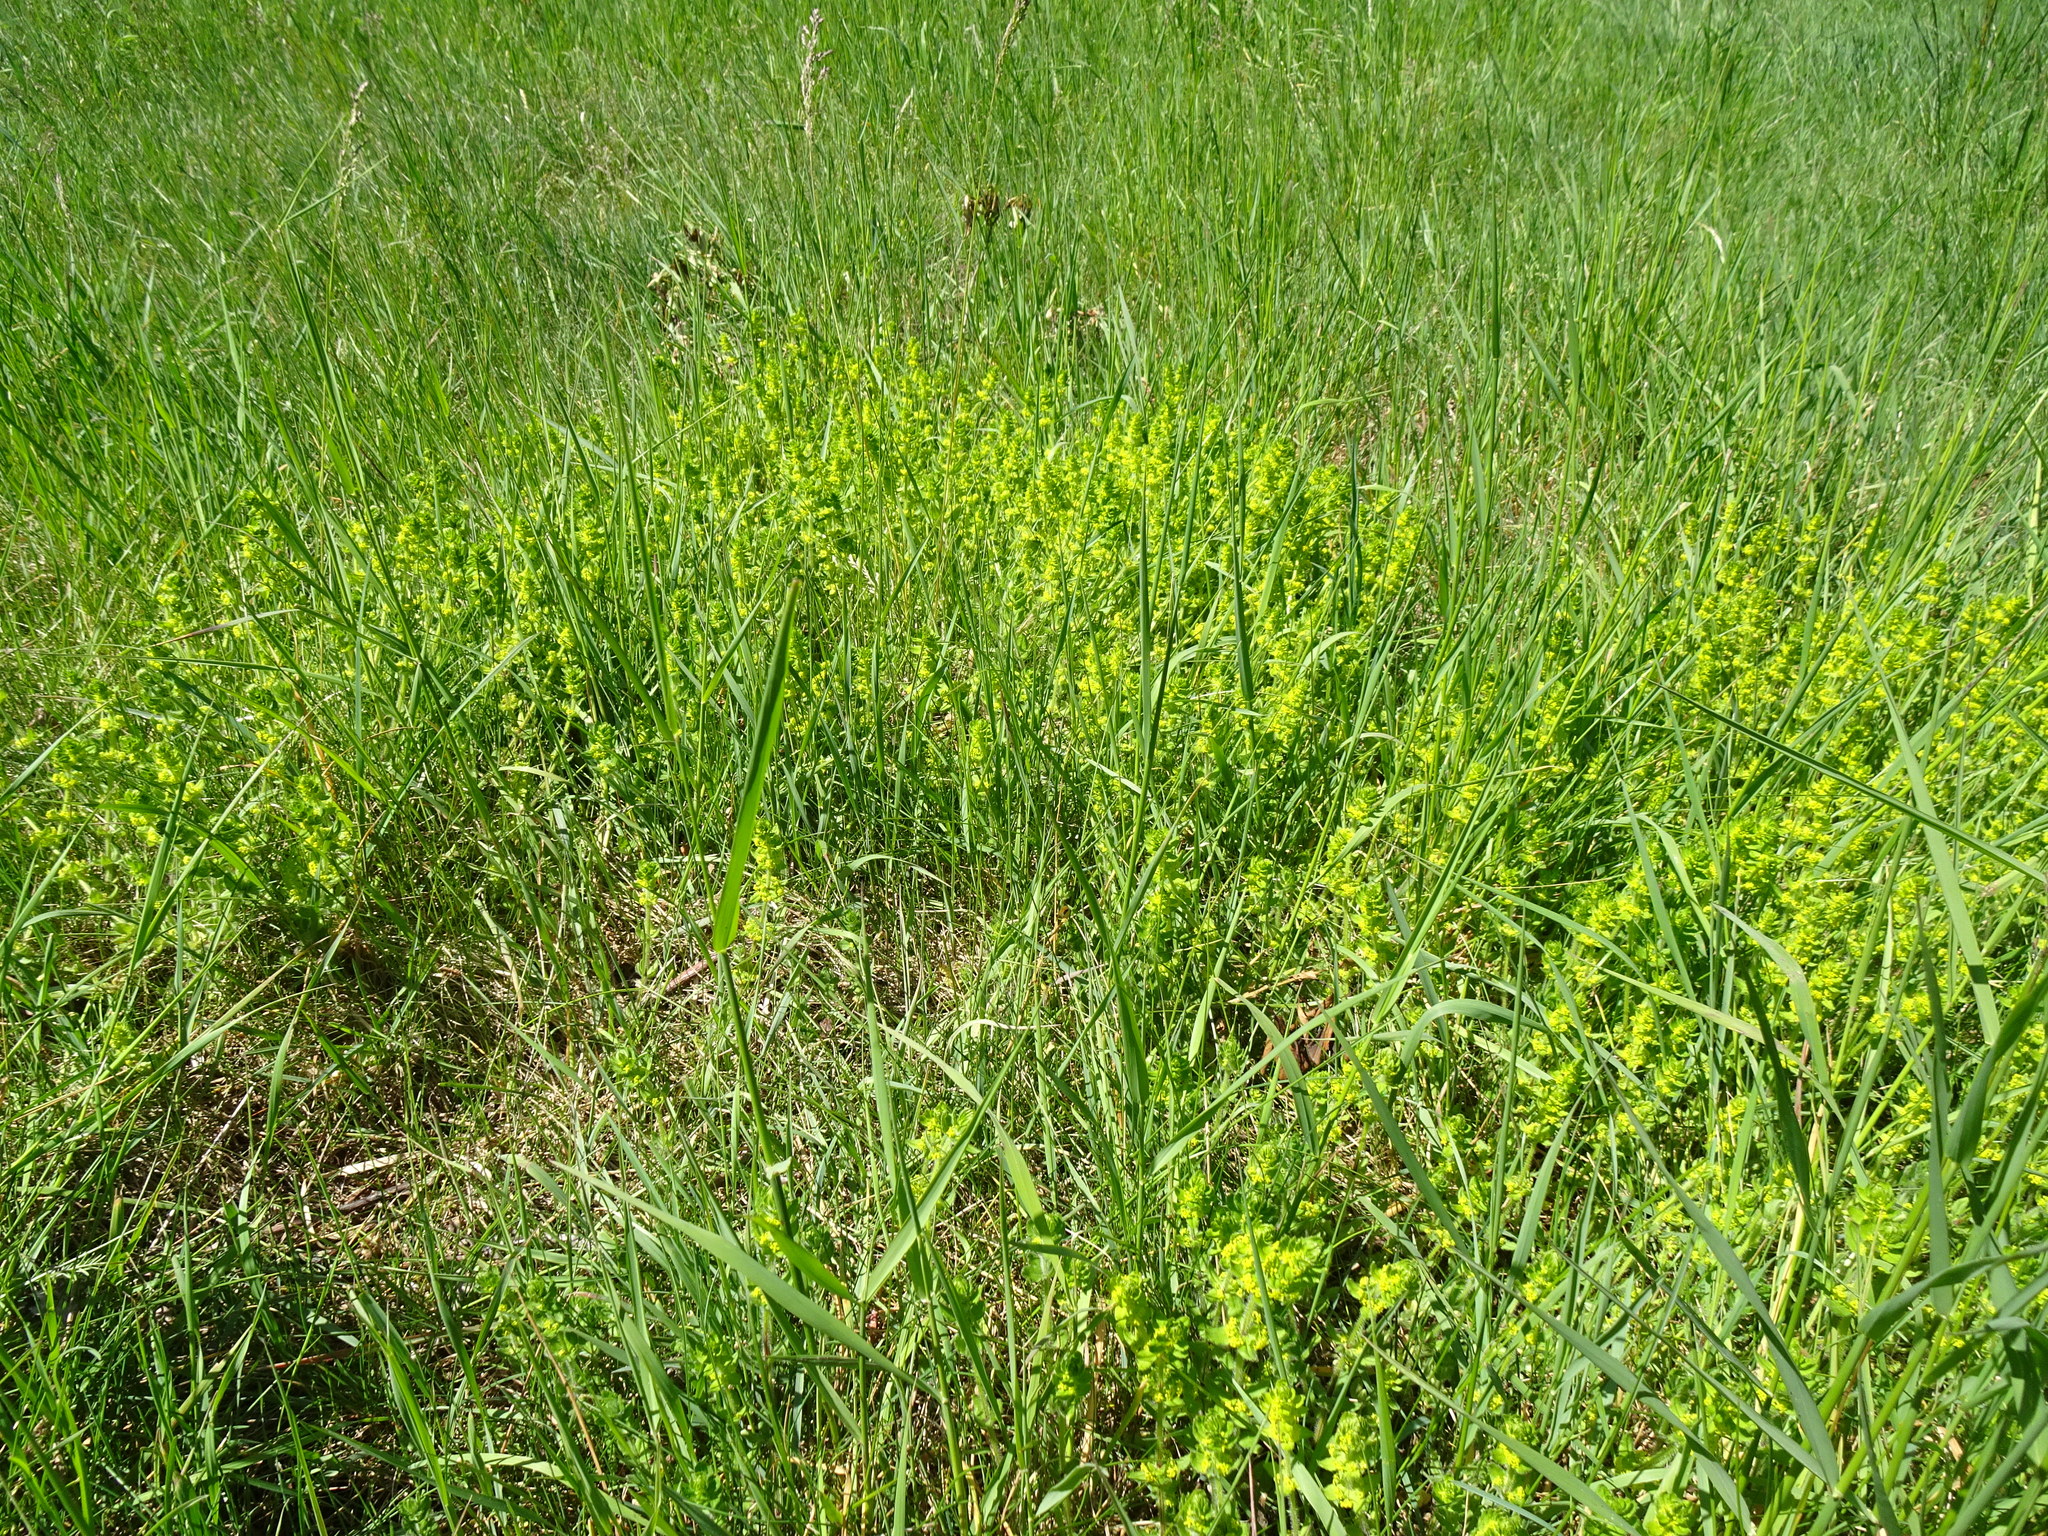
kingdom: Plantae
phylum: Tracheophyta
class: Magnoliopsida
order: Gentianales
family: Rubiaceae
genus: Cruciata
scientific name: Cruciata laevipes
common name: Crosswort
